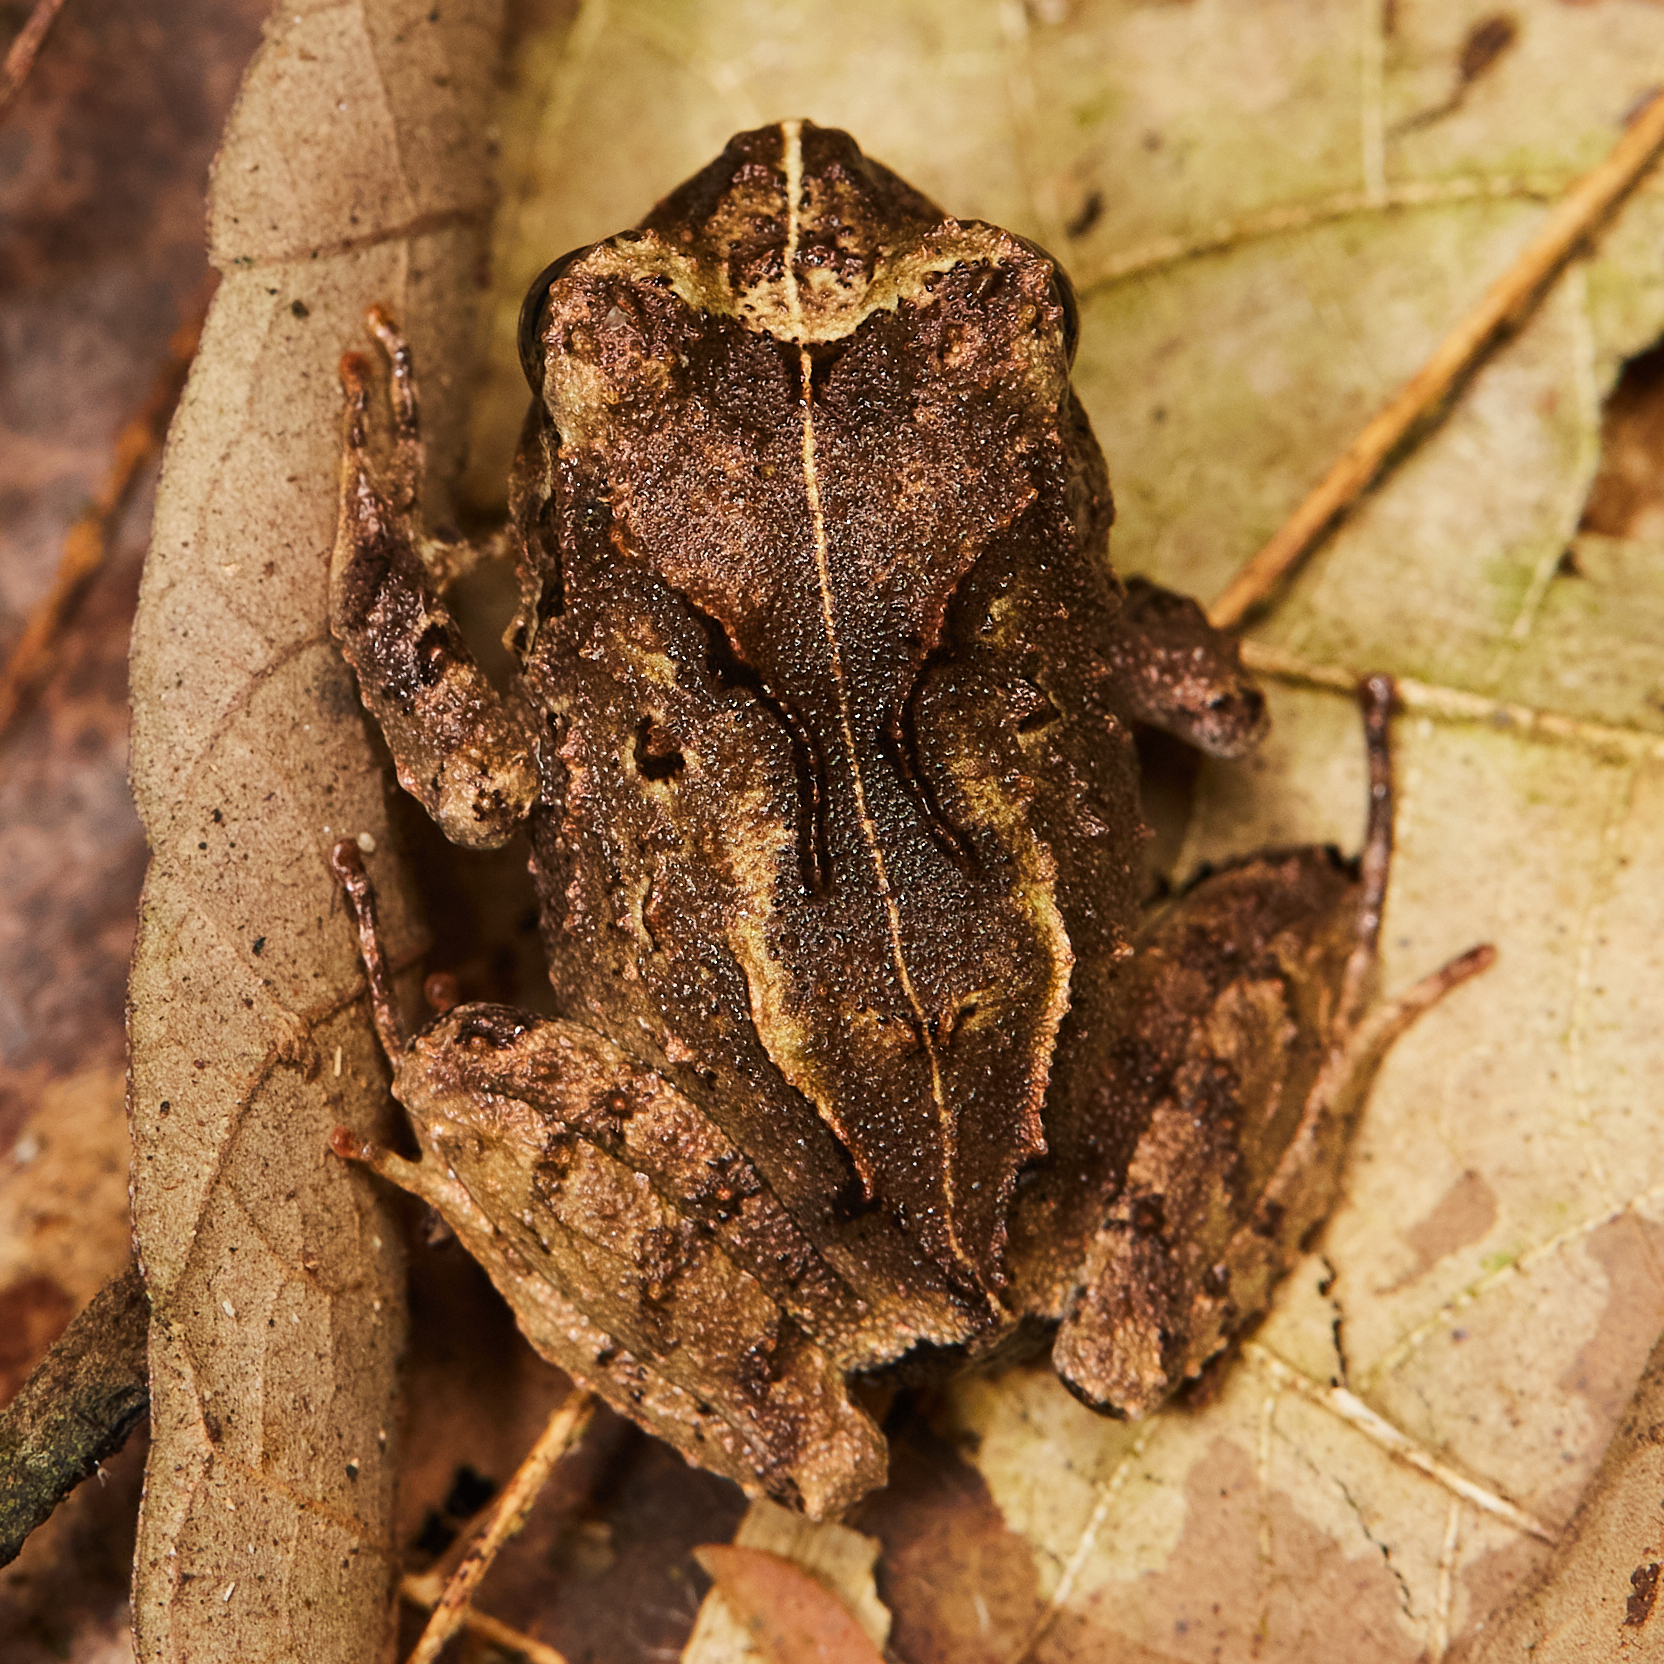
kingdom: Animalia
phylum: Chordata
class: Amphibia
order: Anura
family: Craugastoridae
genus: Craugastor
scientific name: Craugastor megacephalus
